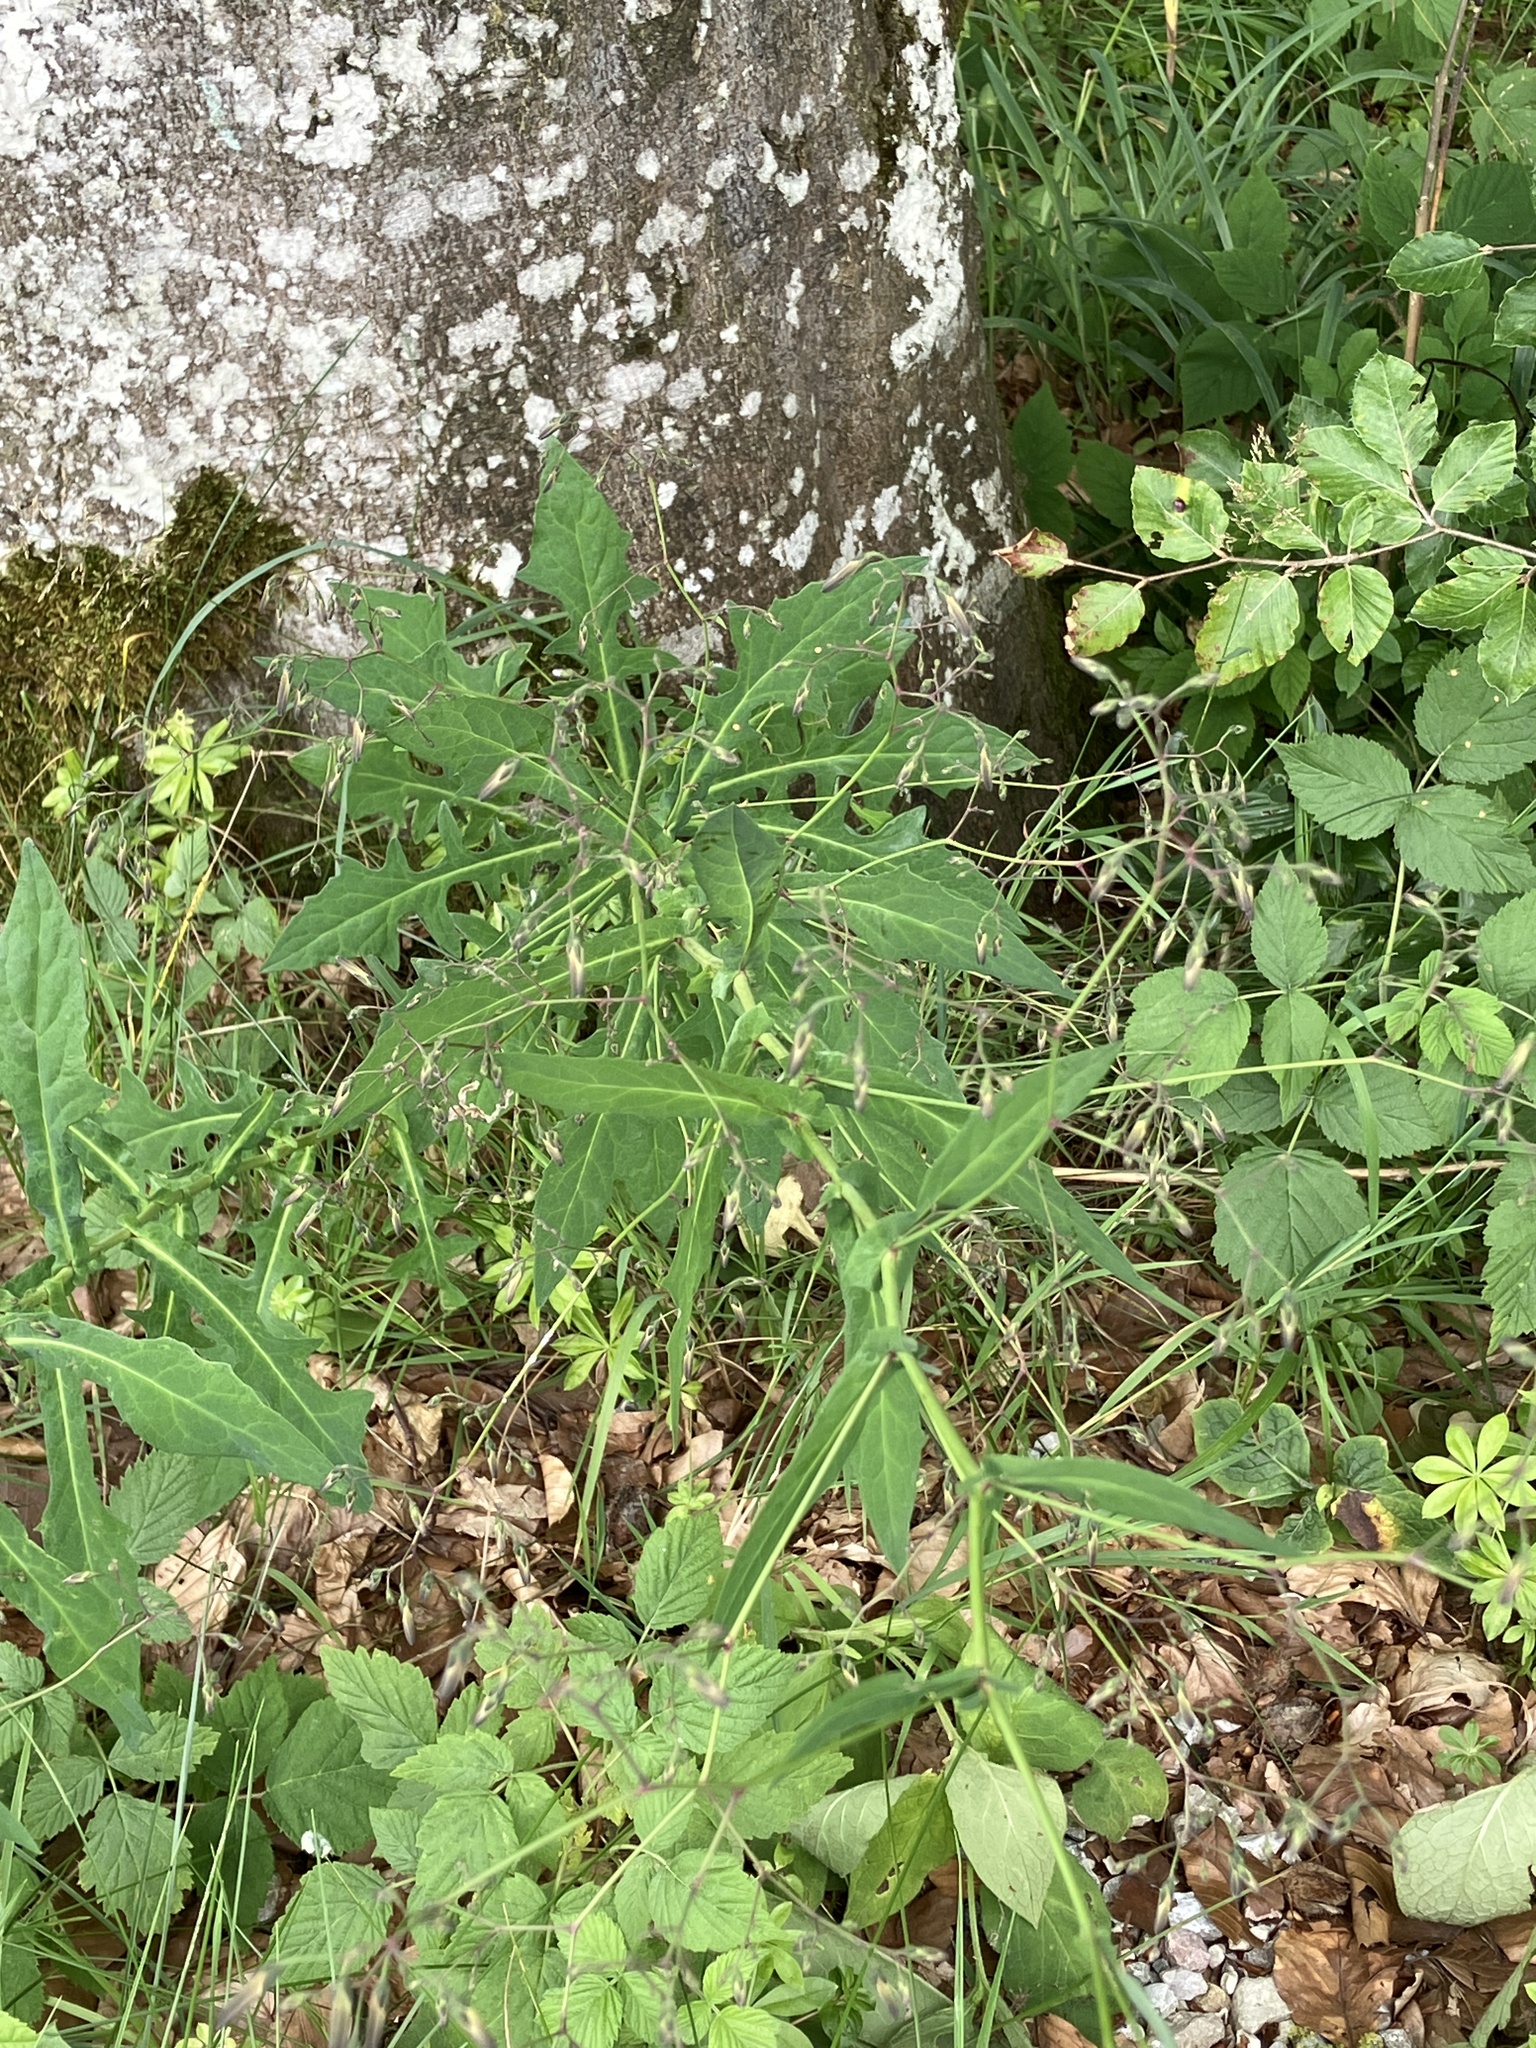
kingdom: Plantae
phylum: Tracheophyta
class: Magnoliopsida
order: Asterales
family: Asteraceae
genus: Prenanthes
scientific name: Prenanthes purpurea
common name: Purple lettuce
